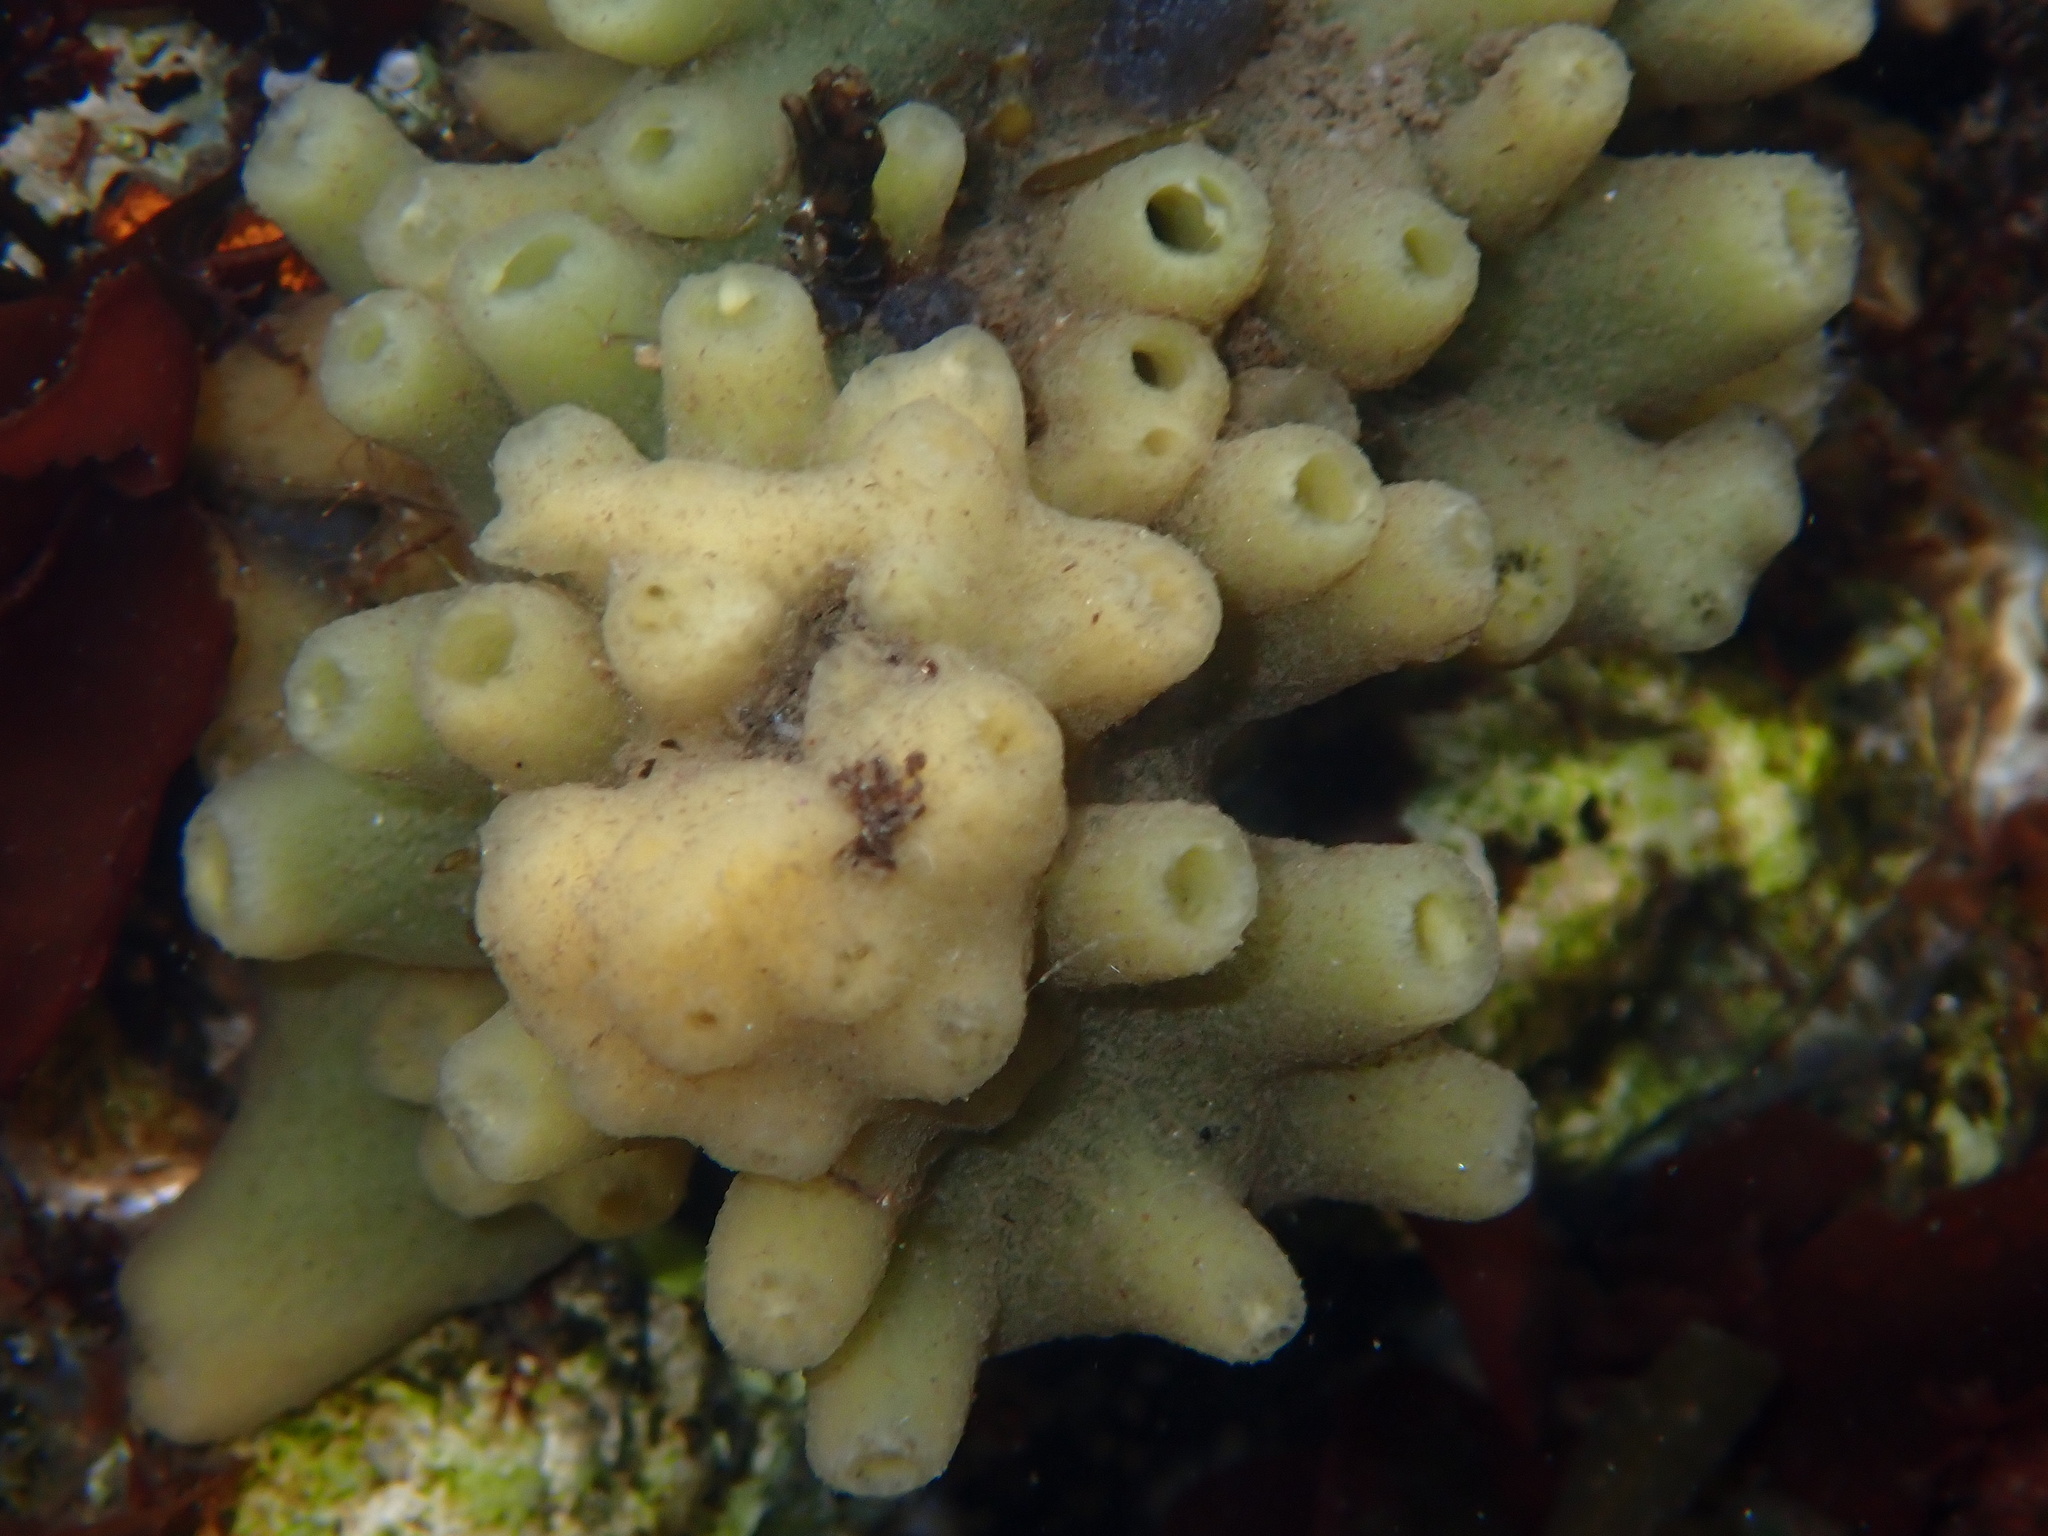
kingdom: Animalia
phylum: Porifera
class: Demospongiae
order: Suberitida
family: Halichondriidae
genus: Halichondria
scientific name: Halichondria panicea
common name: Breadcrumb sponge
